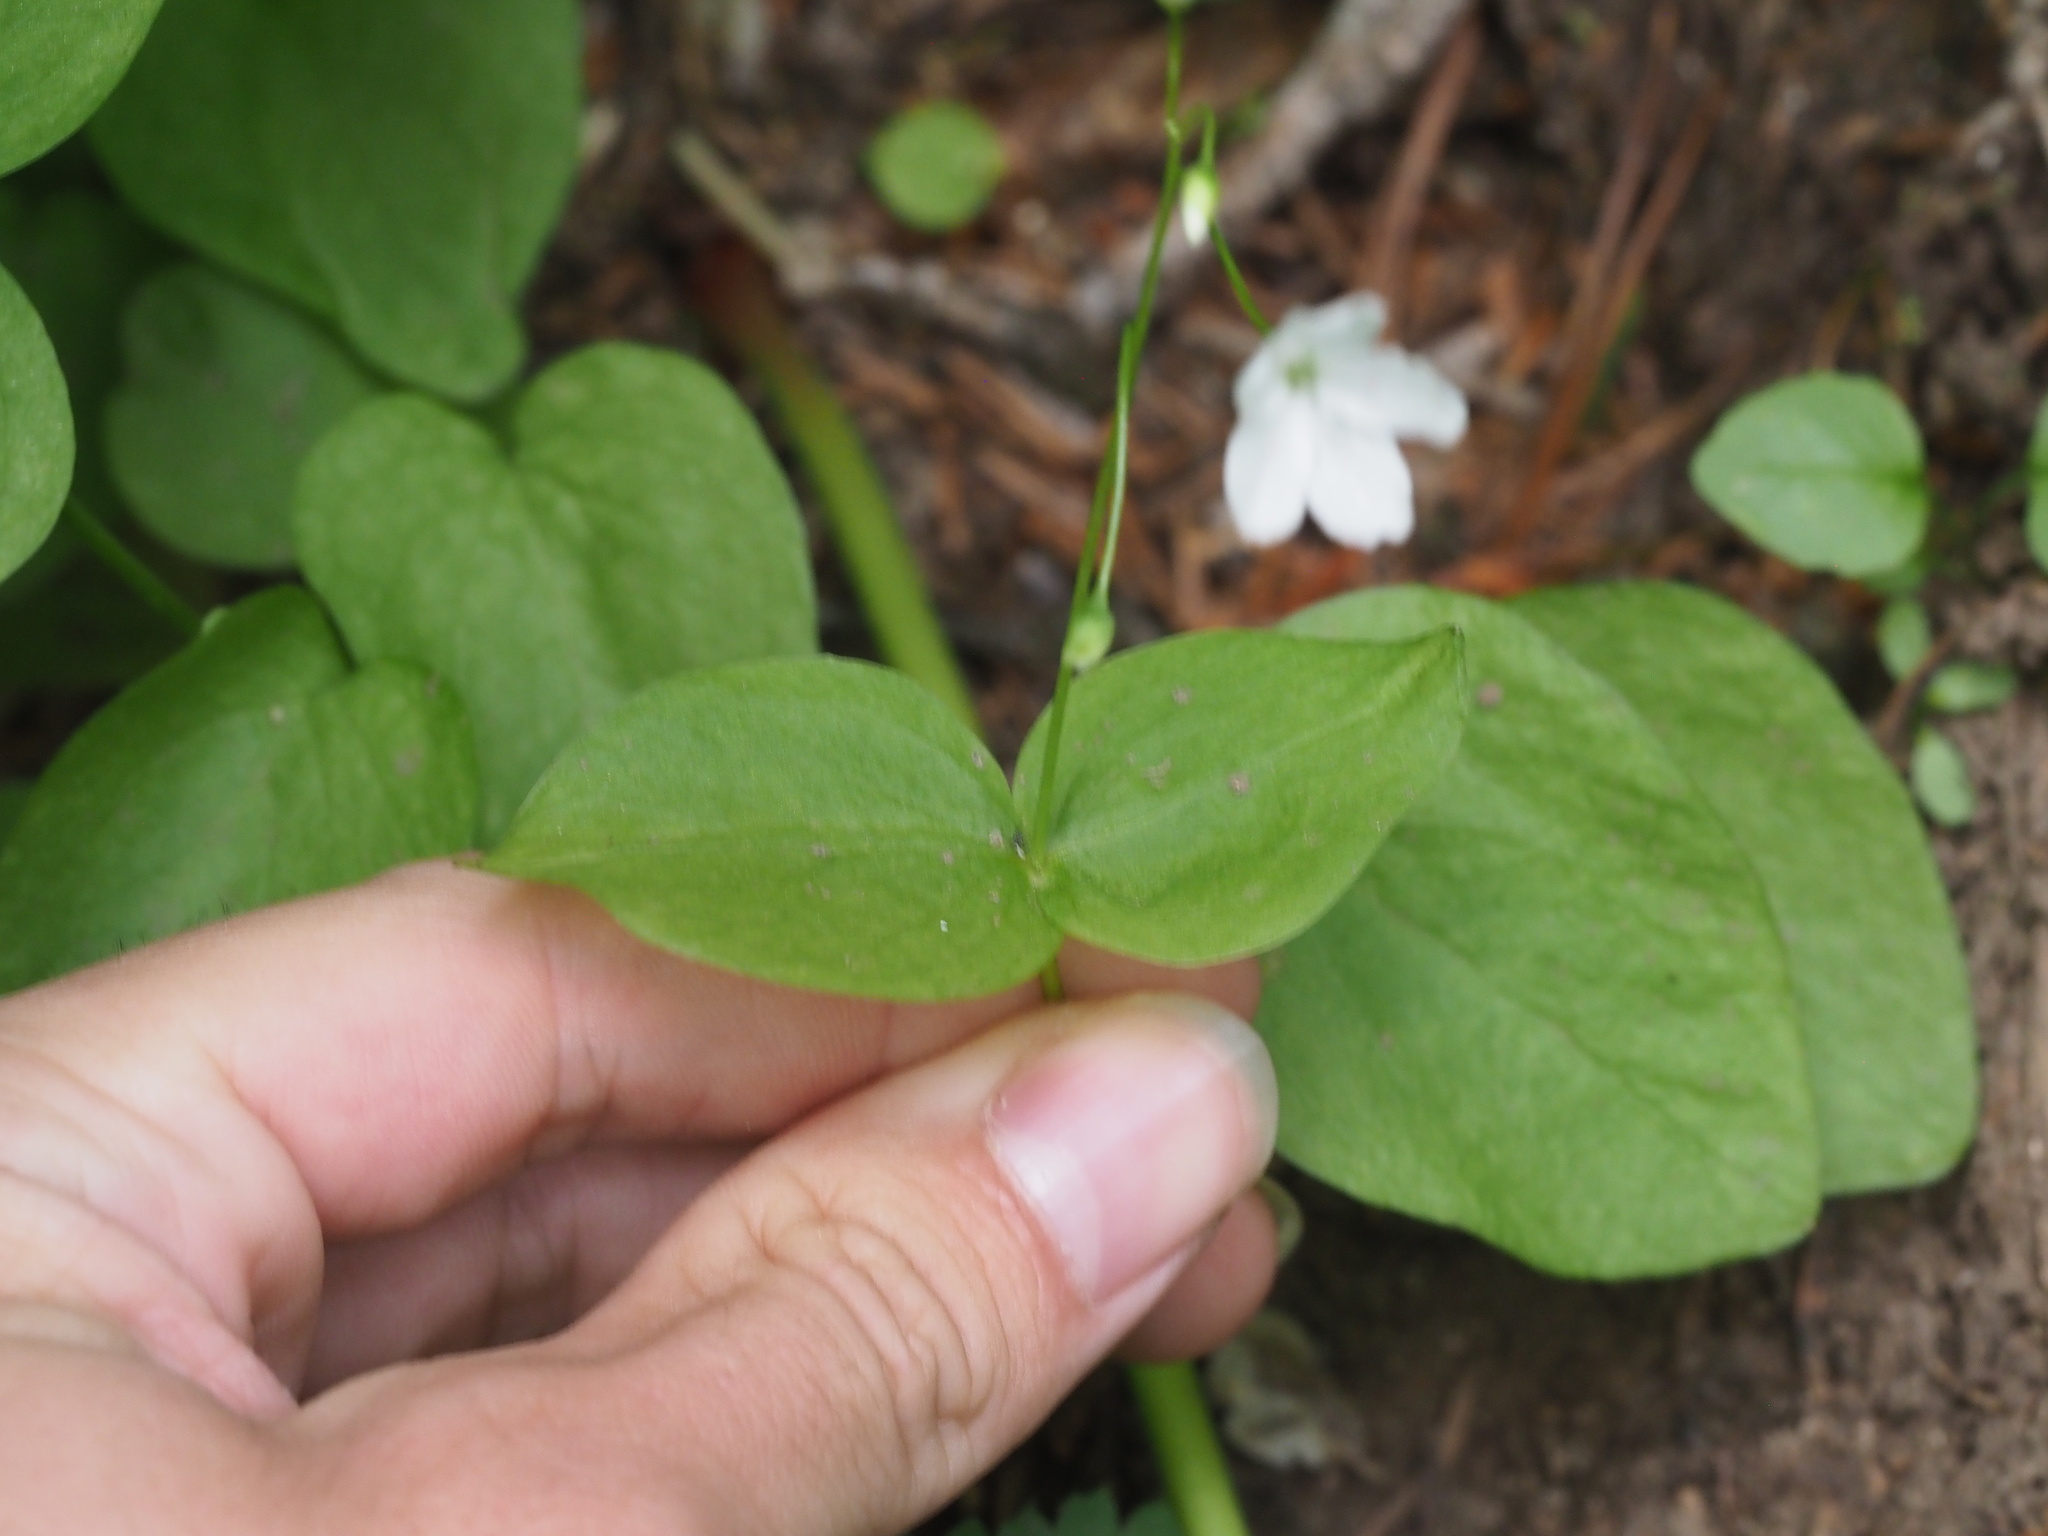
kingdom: Plantae
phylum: Tracheophyta
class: Magnoliopsida
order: Caryophyllales
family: Montiaceae
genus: Claytonia
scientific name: Claytonia cordifolia
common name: Broad-leaved spring beauty
